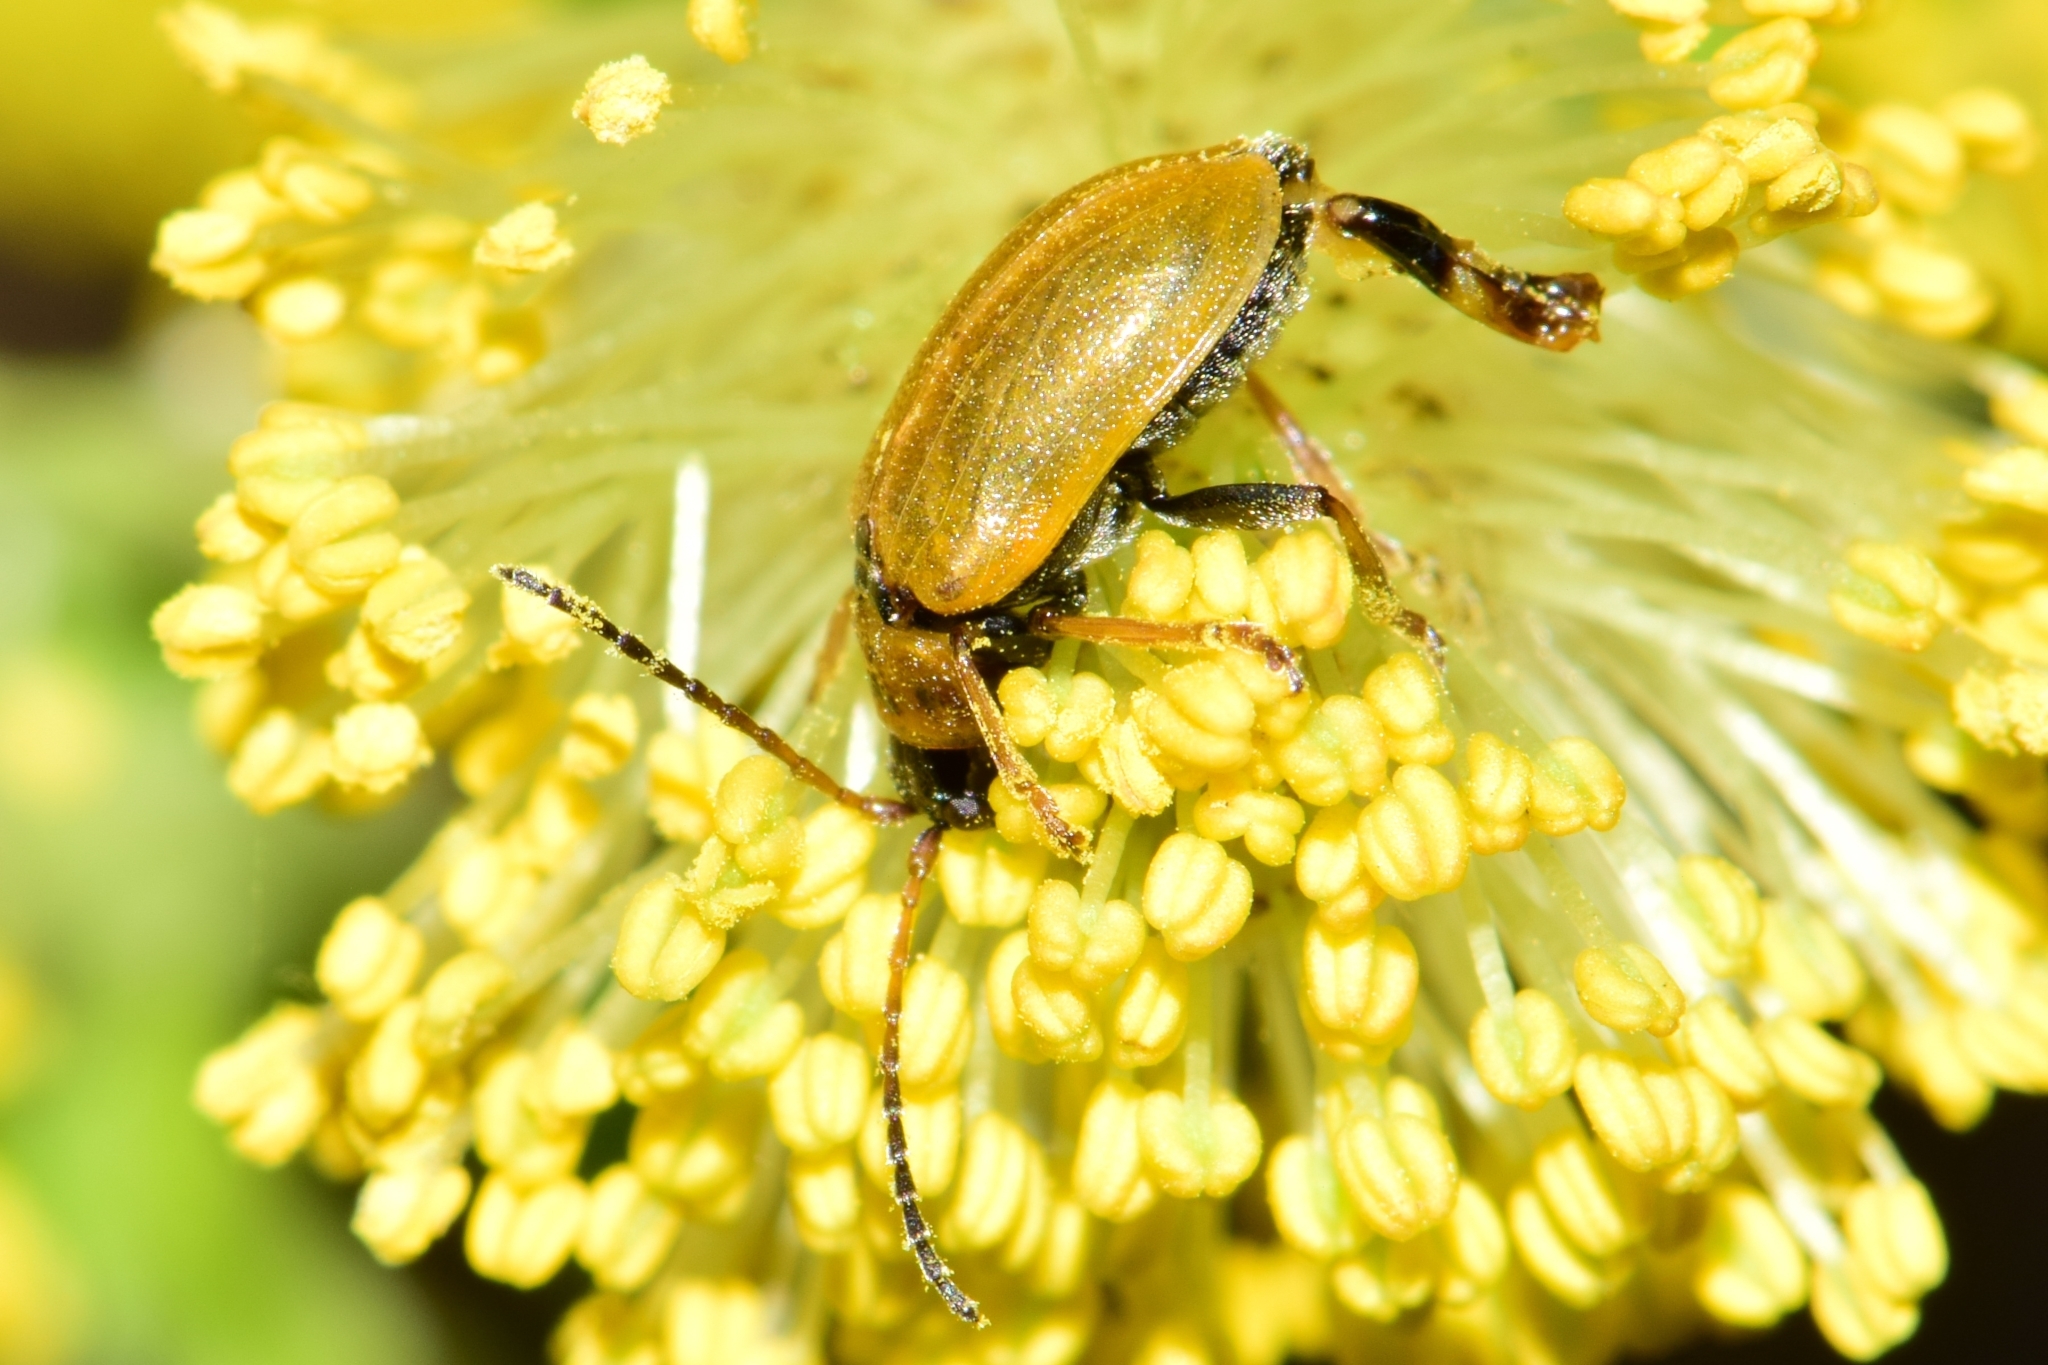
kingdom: Animalia
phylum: Arthropoda
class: Insecta
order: Coleoptera
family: Chrysomelidae
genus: Lochmaea
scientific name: Lochmaea caprea
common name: Willow leaf beetle
